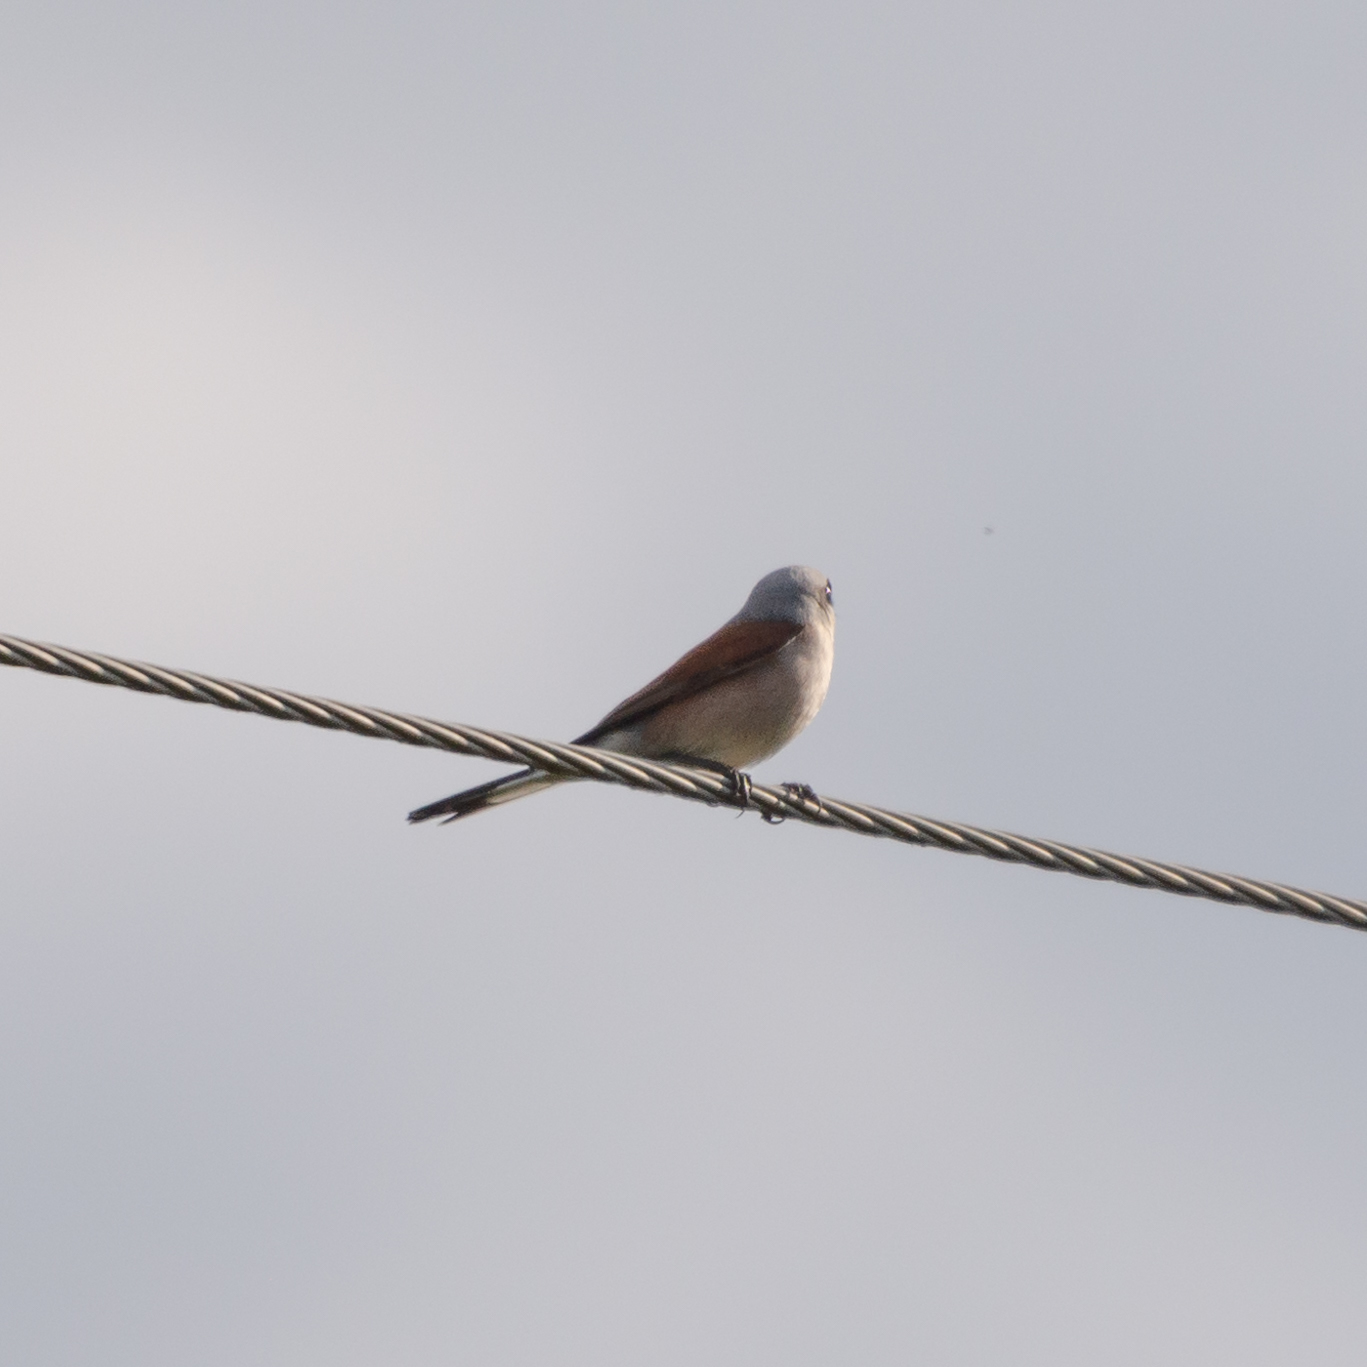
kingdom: Animalia
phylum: Chordata
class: Aves
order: Passeriformes
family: Laniidae
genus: Lanius
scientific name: Lanius collurio
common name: Red-backed shrike
